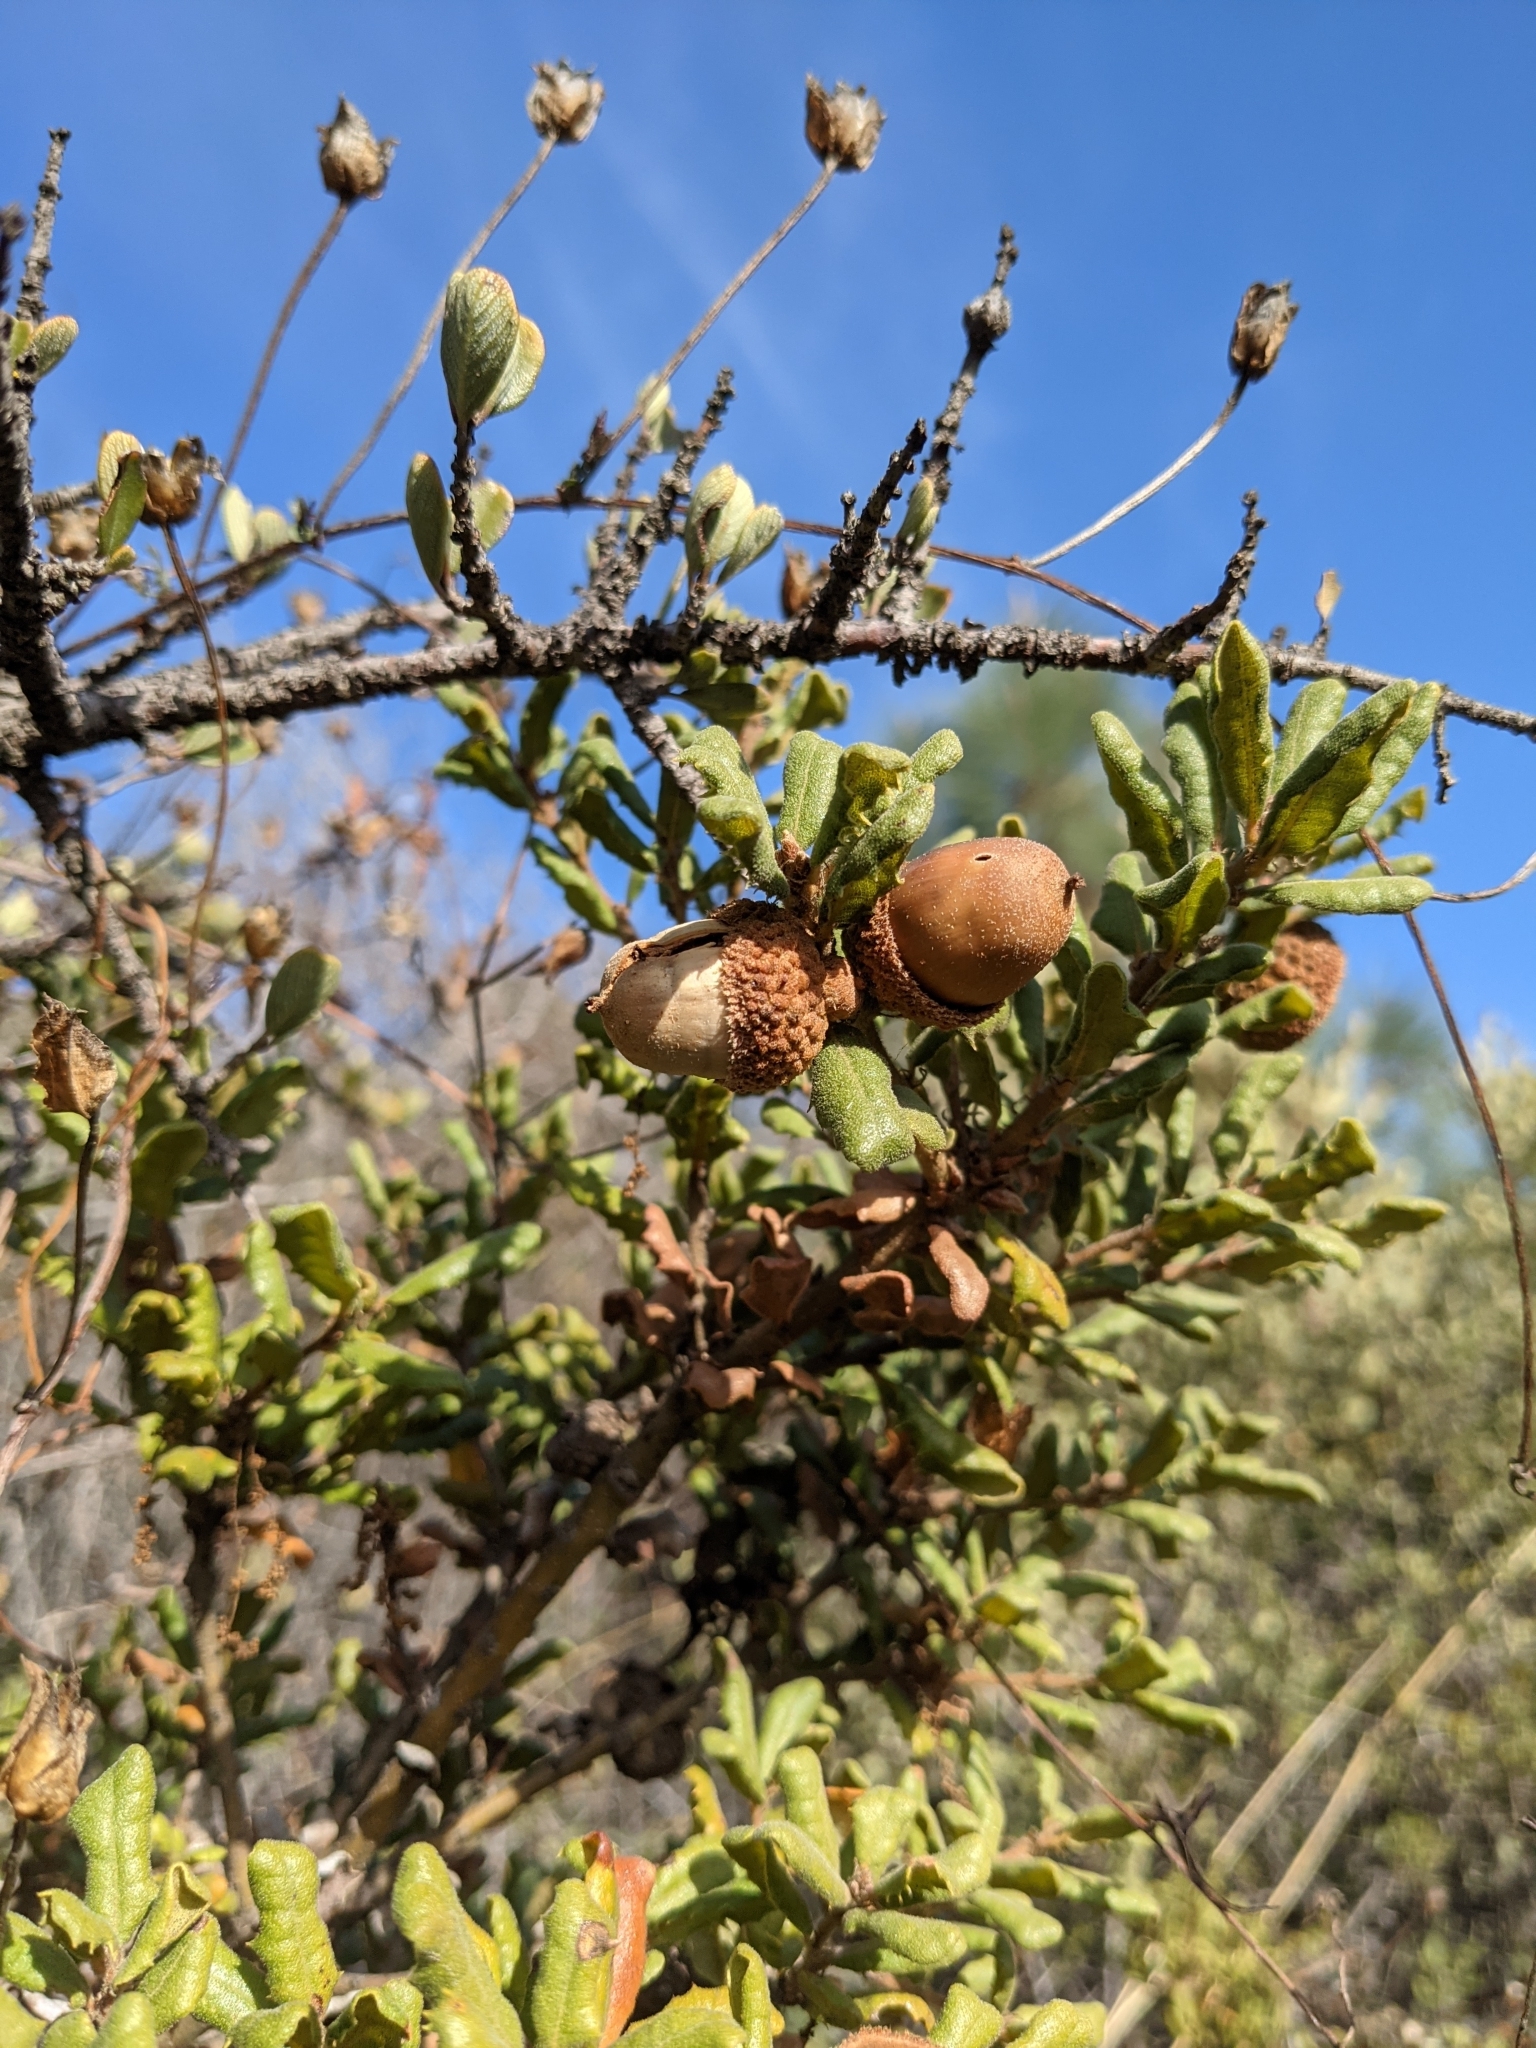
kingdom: Plantae
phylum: Tracheophyta
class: Magnoliopsida
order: Fagales
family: Fagaceae
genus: Quercus
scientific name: Quercus durata
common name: Leather oak
